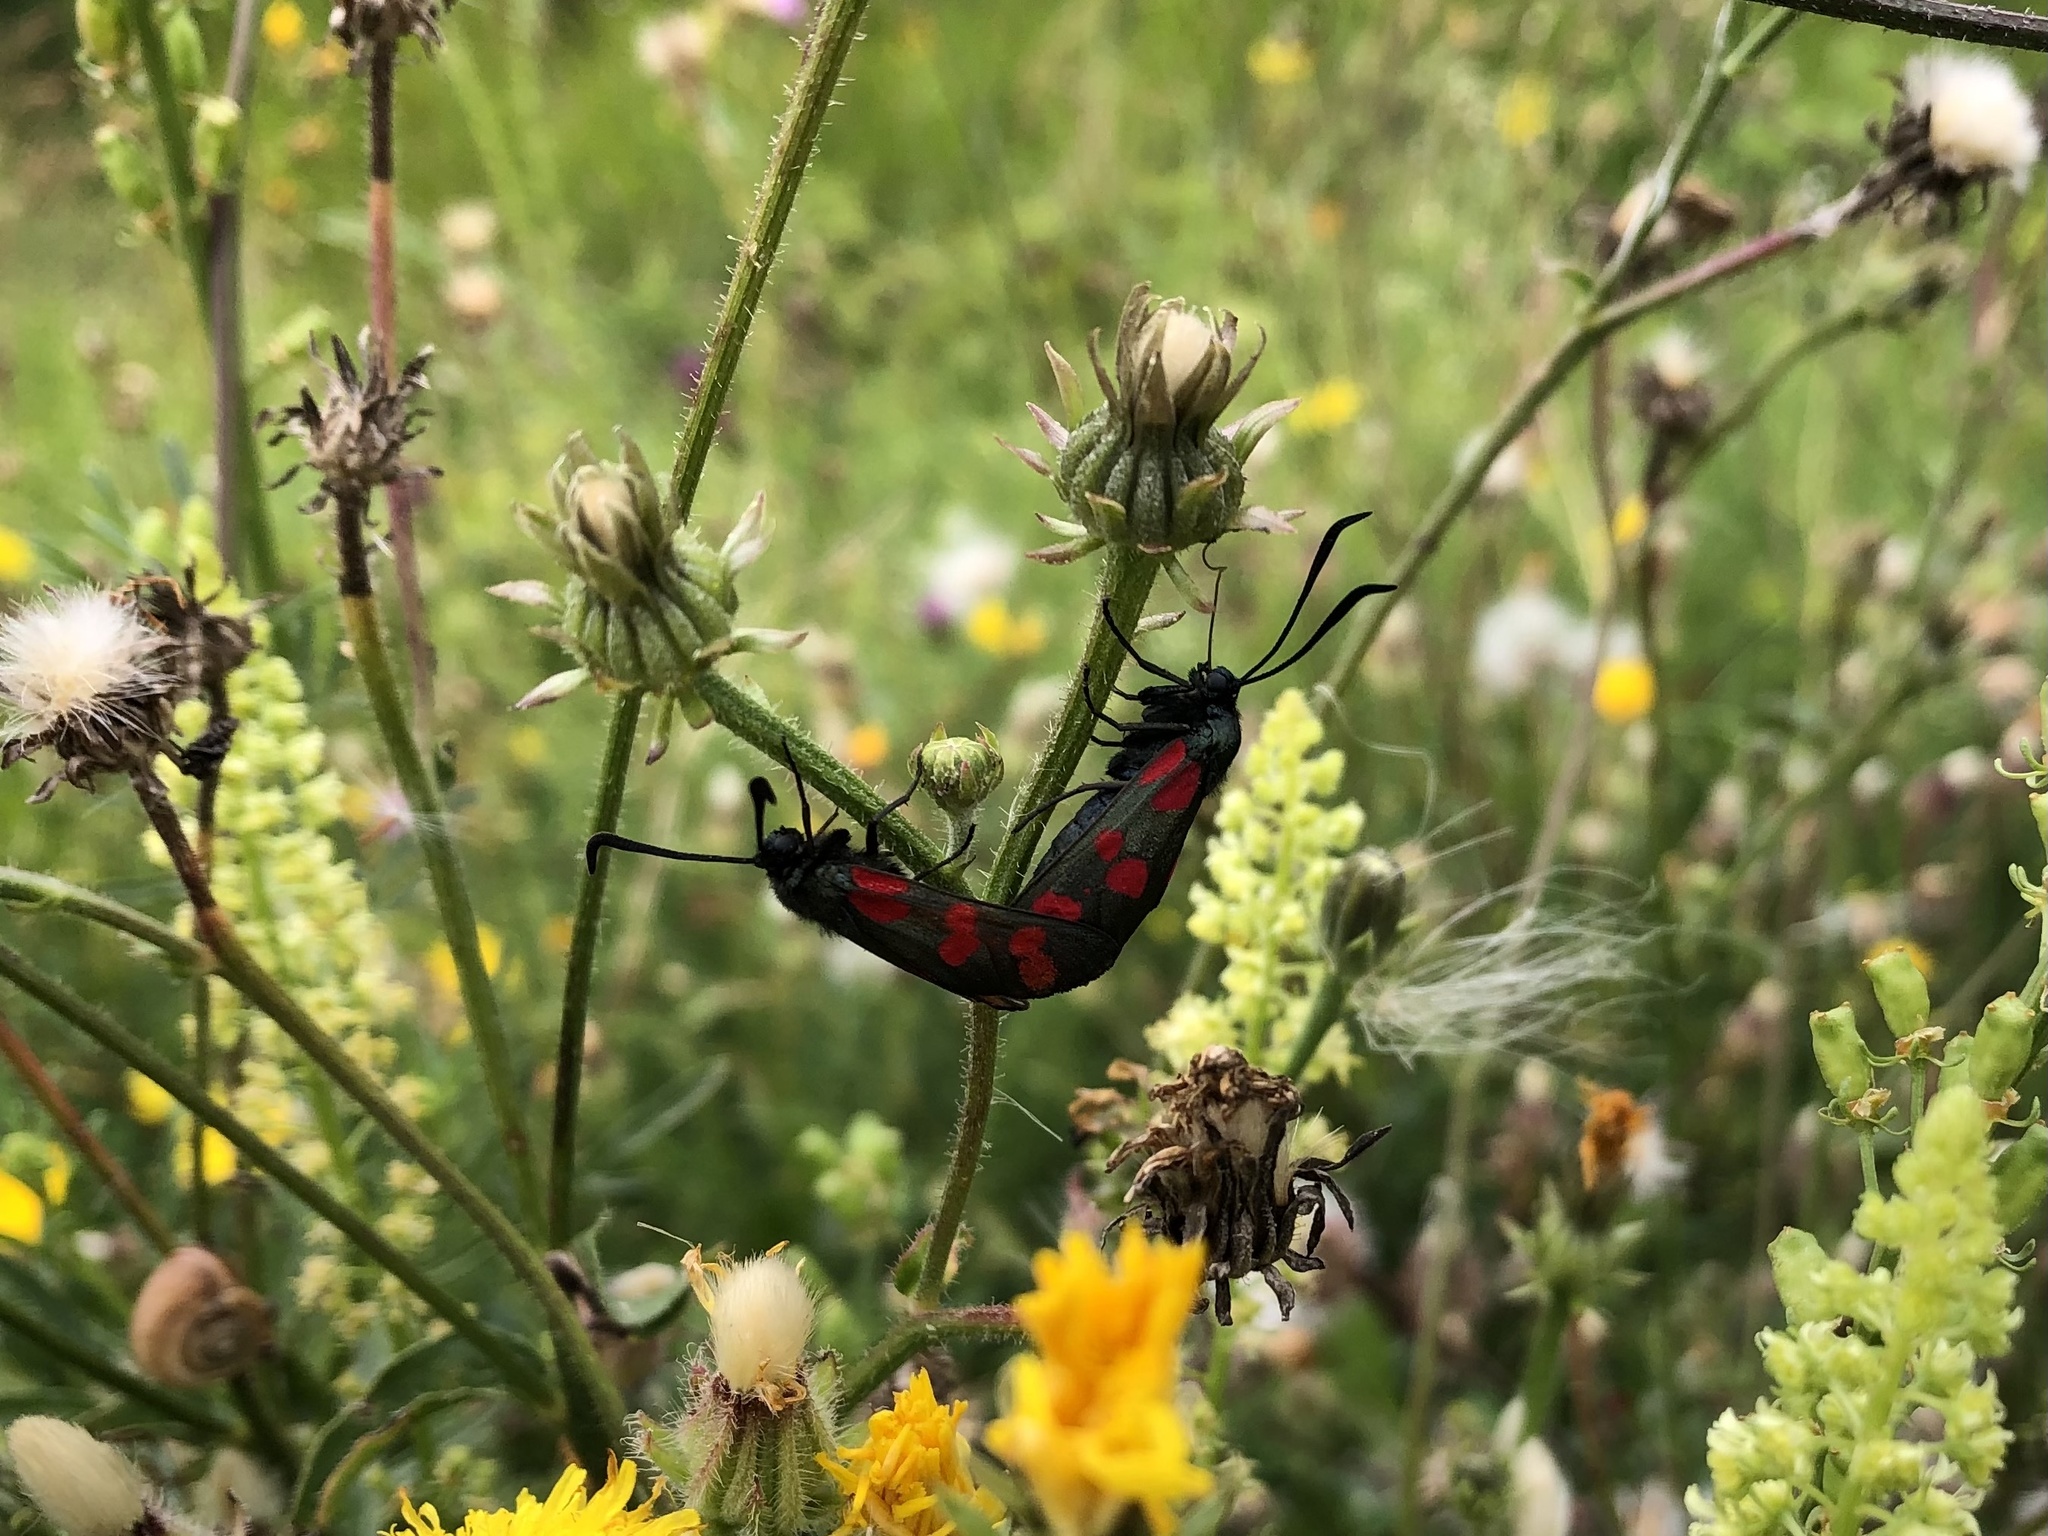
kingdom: Animalia
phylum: Arthropoda
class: Insecta
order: Lepidoptera
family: Zygaenidae
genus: Zygaena
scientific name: Zygaena filipendulae
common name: Six-spot burnet
